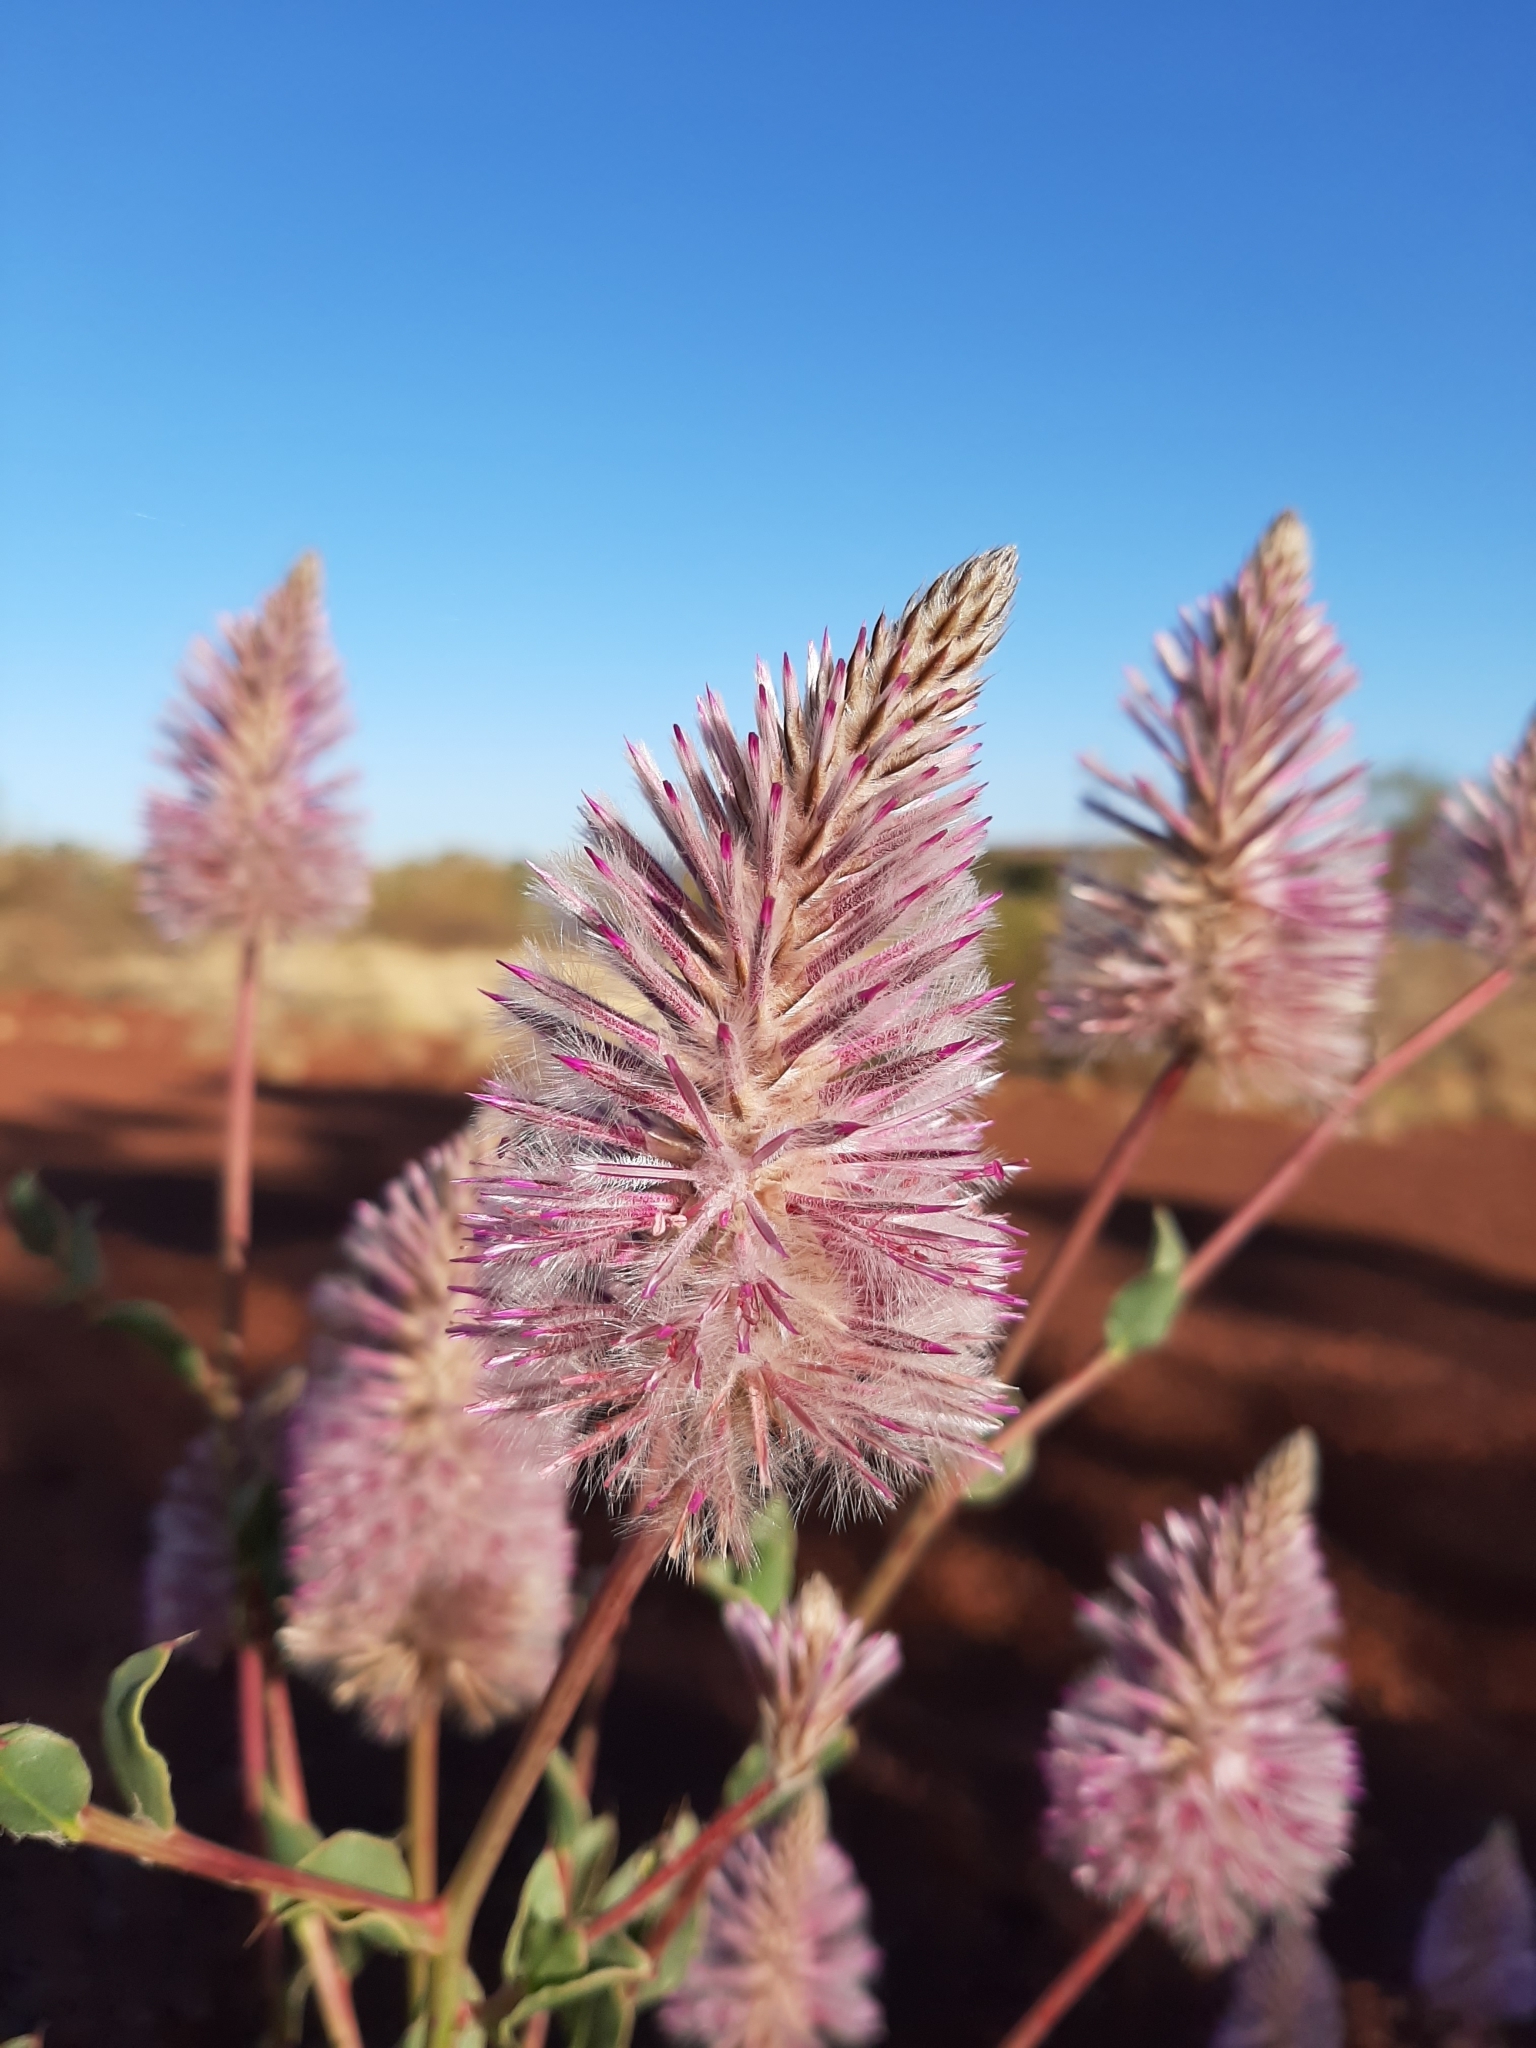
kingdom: Plantae
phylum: Tracheophyta
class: Magnoliopsida
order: Caryophyllales
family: Amaranthaceae
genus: Ptilotus
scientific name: Ptilotus exaltatus
